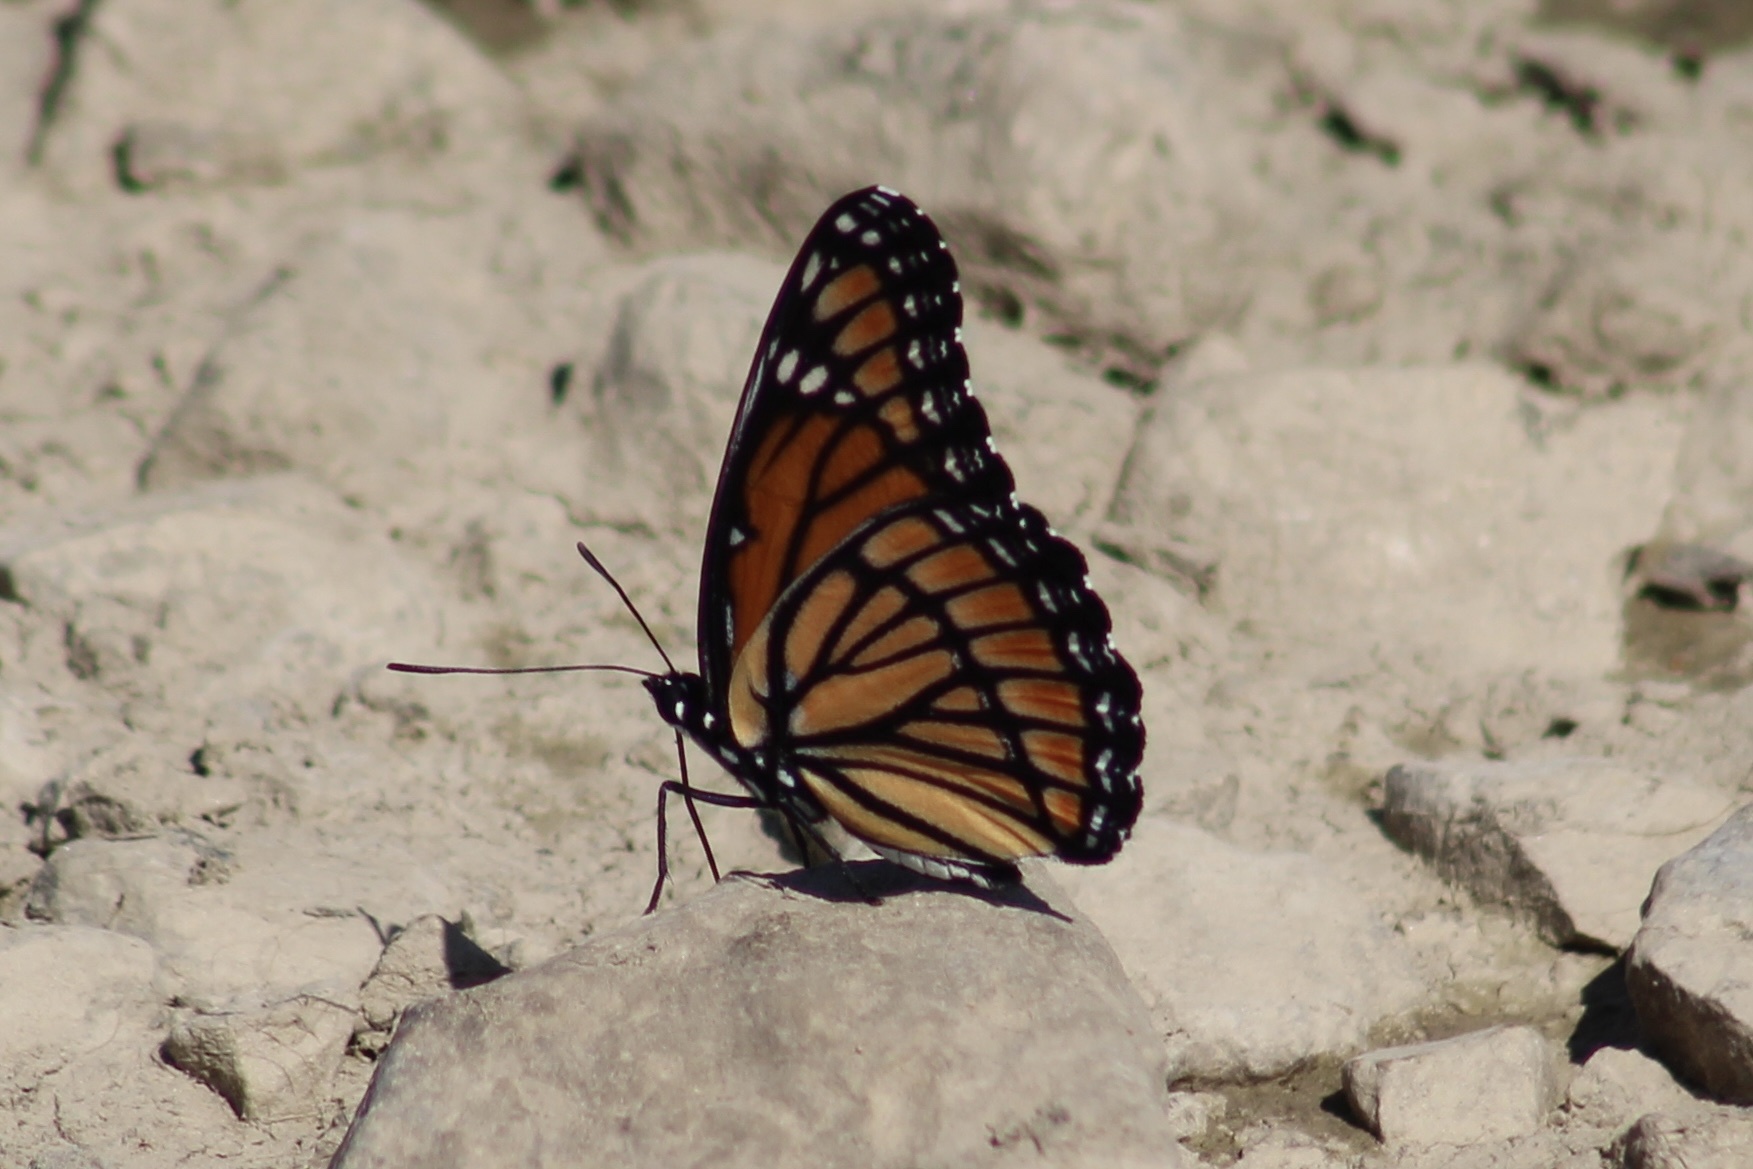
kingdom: Animalia
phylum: Arthropoda
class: Insecta
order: Lepidoptera
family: Nymphalidae
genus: Limenitis
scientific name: Limenitis archippus
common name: Viceroy
